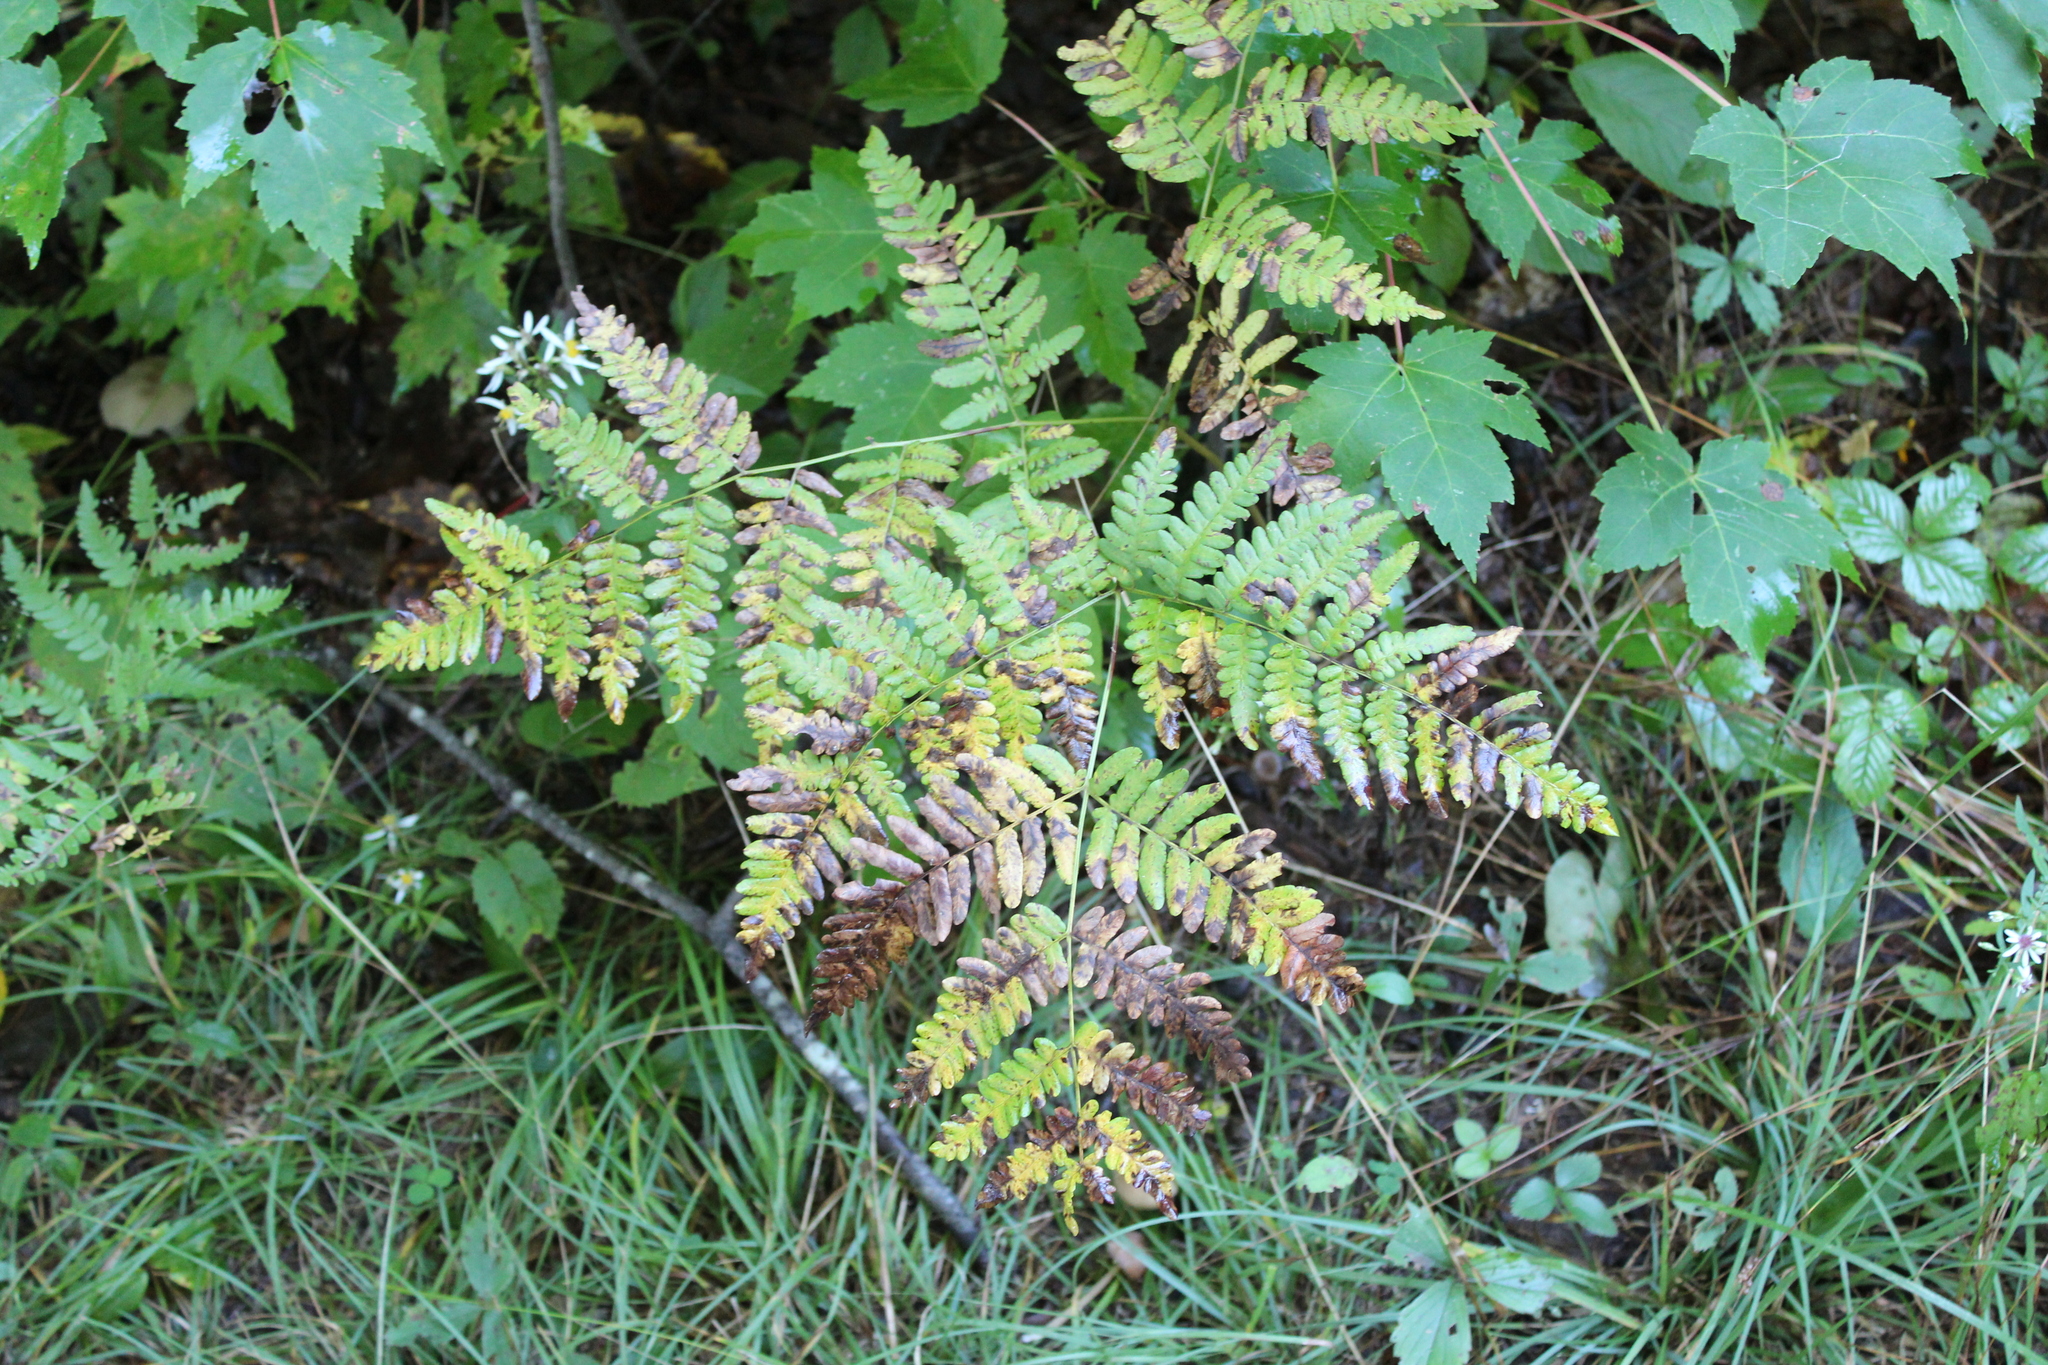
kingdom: Plantae
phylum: Tracheophyta
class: Polypodiopsida
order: Polypodiales
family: Dennstaedtiaceae
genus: Pteridium
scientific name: Pteridium aquilinum
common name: Bracken
